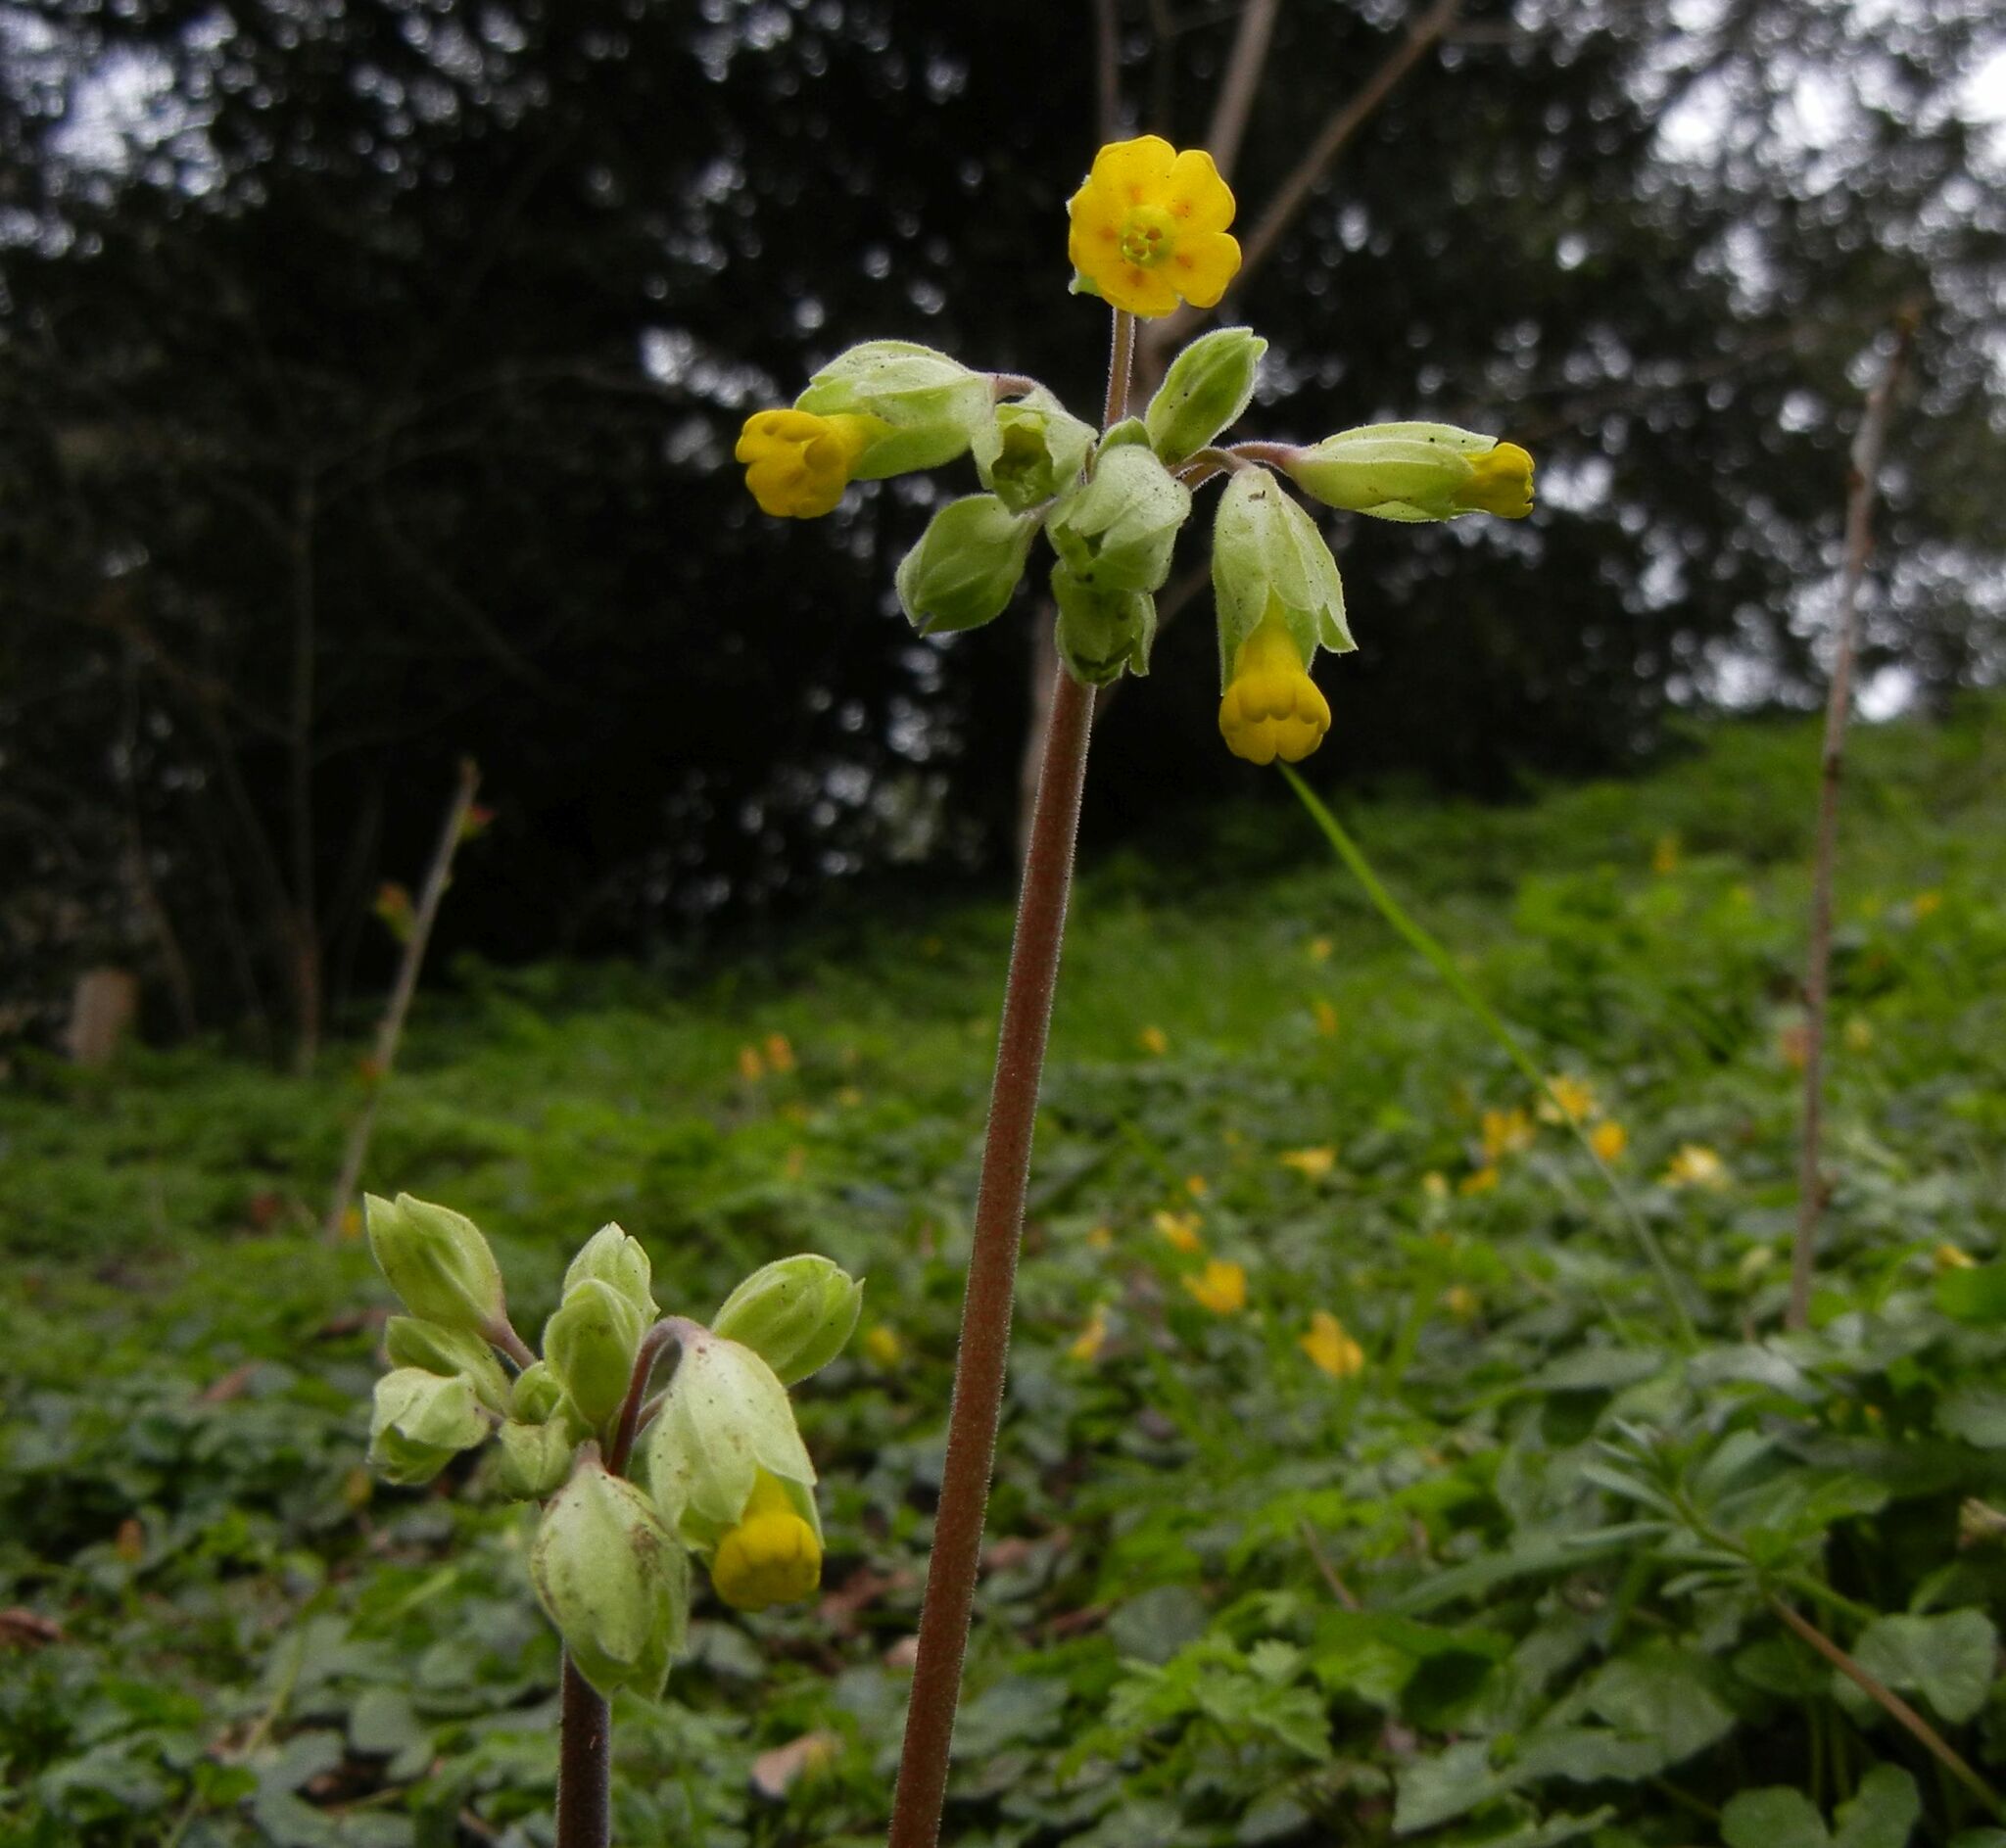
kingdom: Plantae
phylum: Tracheophyta
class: Magnoliopsida
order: Ericales
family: Primulaceae
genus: Primula
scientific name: Primula veris
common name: Cowslip
